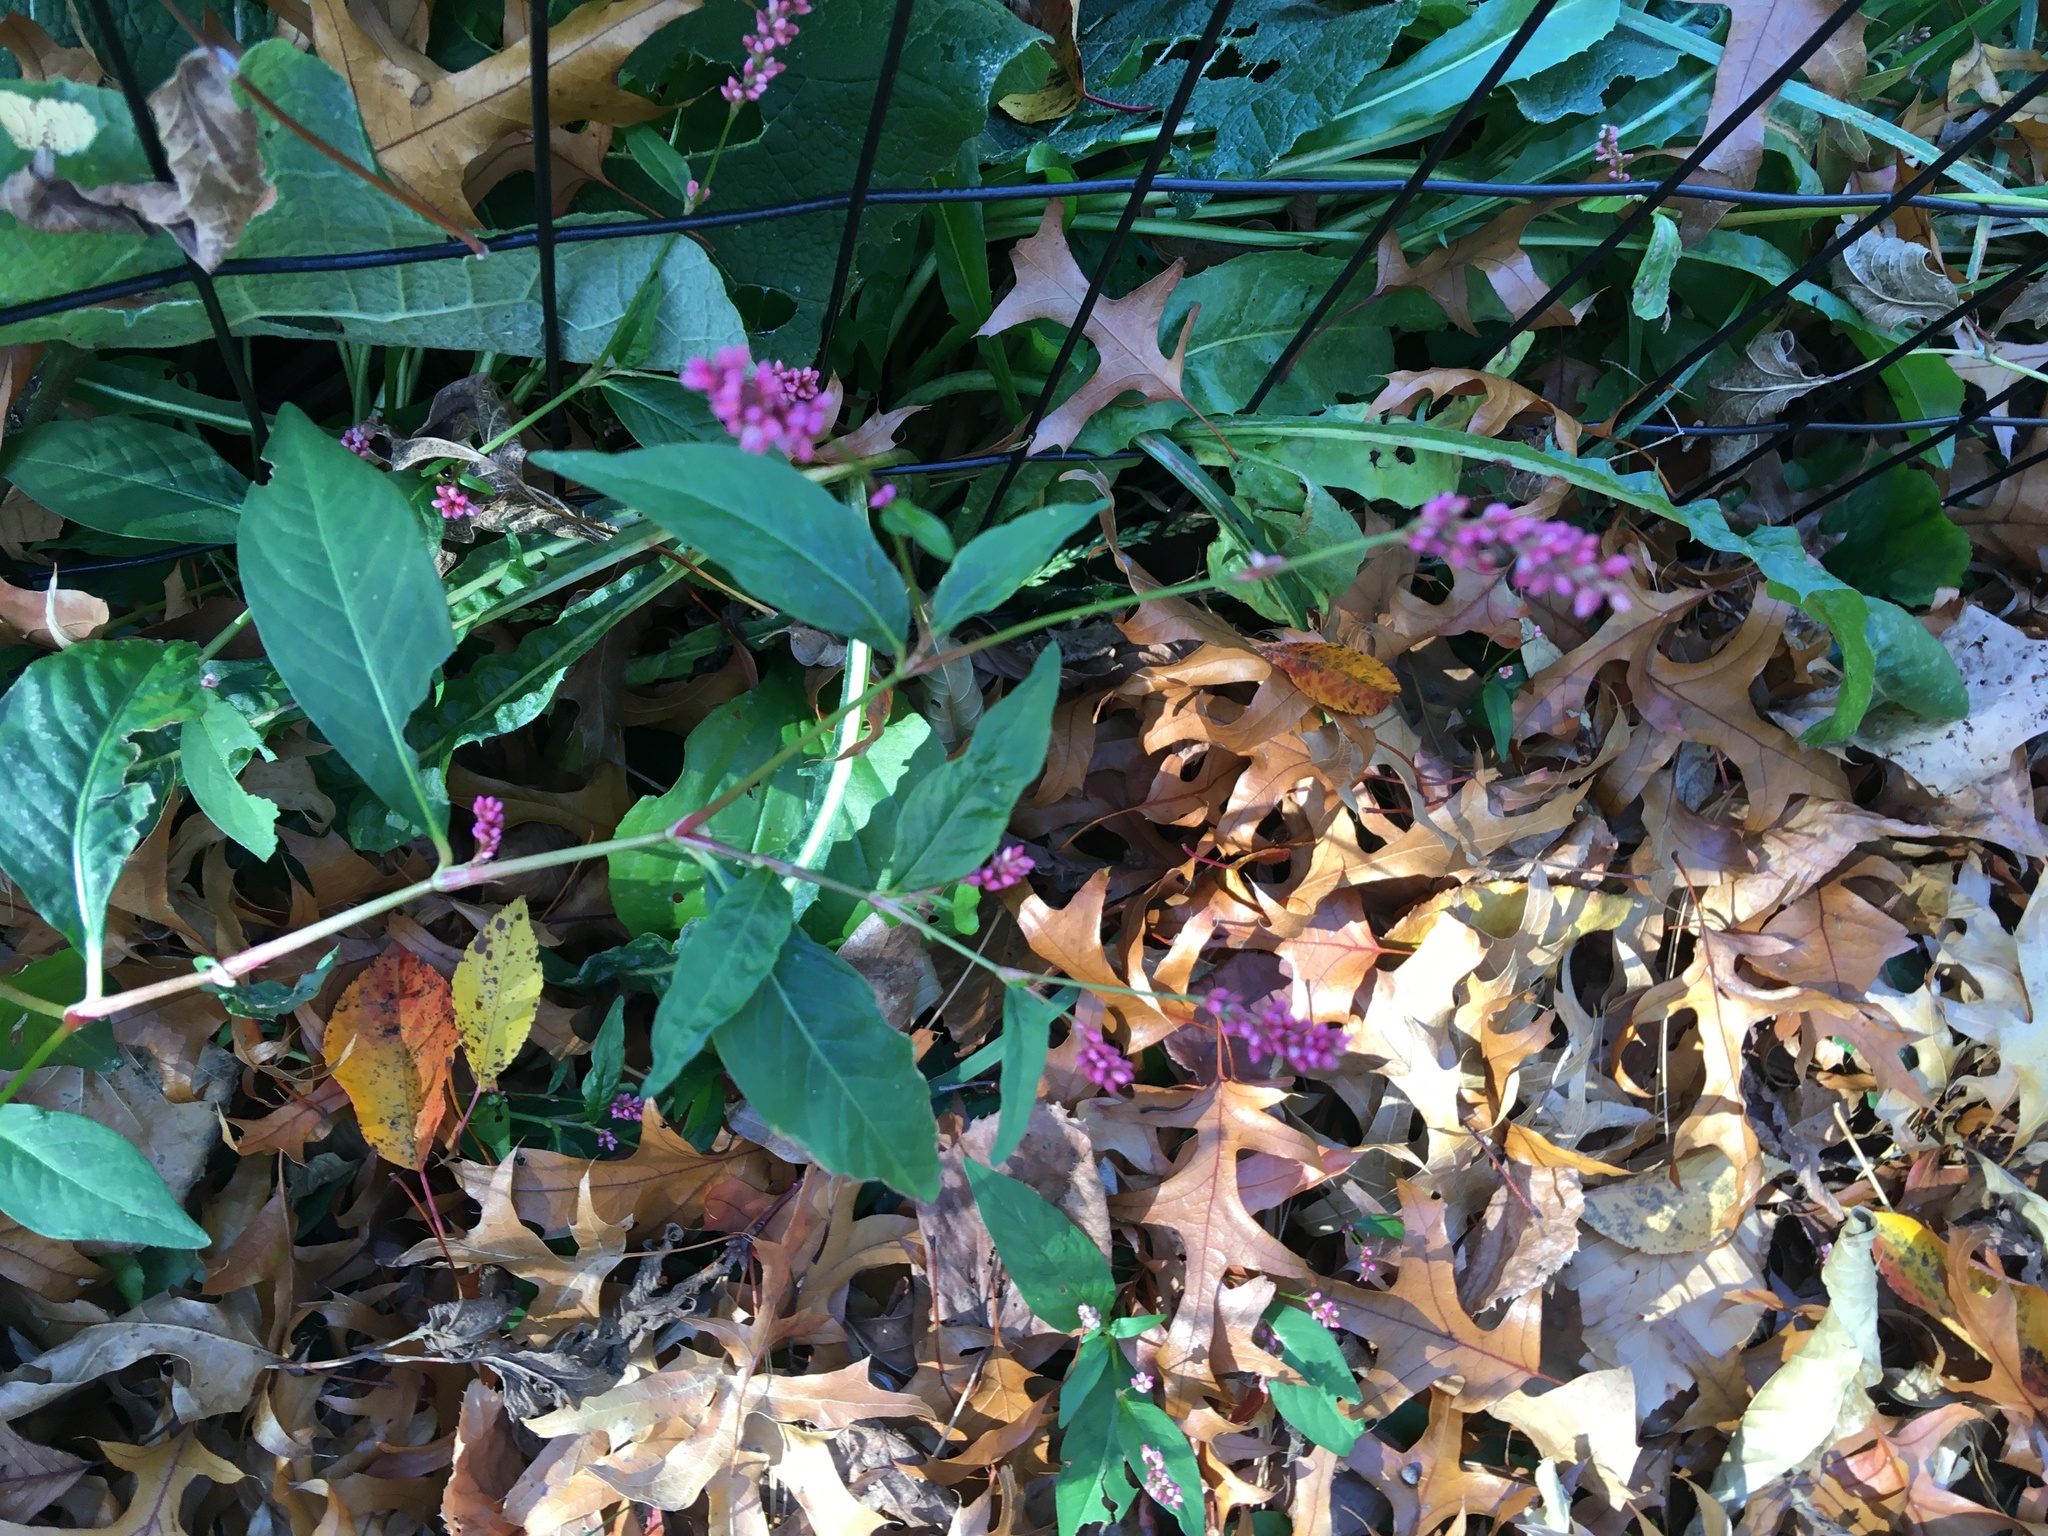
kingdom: Plantae
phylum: Tracheophyta
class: Magnoliopsida
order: Caryophyllales
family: Polygonaceae
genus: Persicaria
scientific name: Persicaria longiseta
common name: Bristly lady's-thumb
